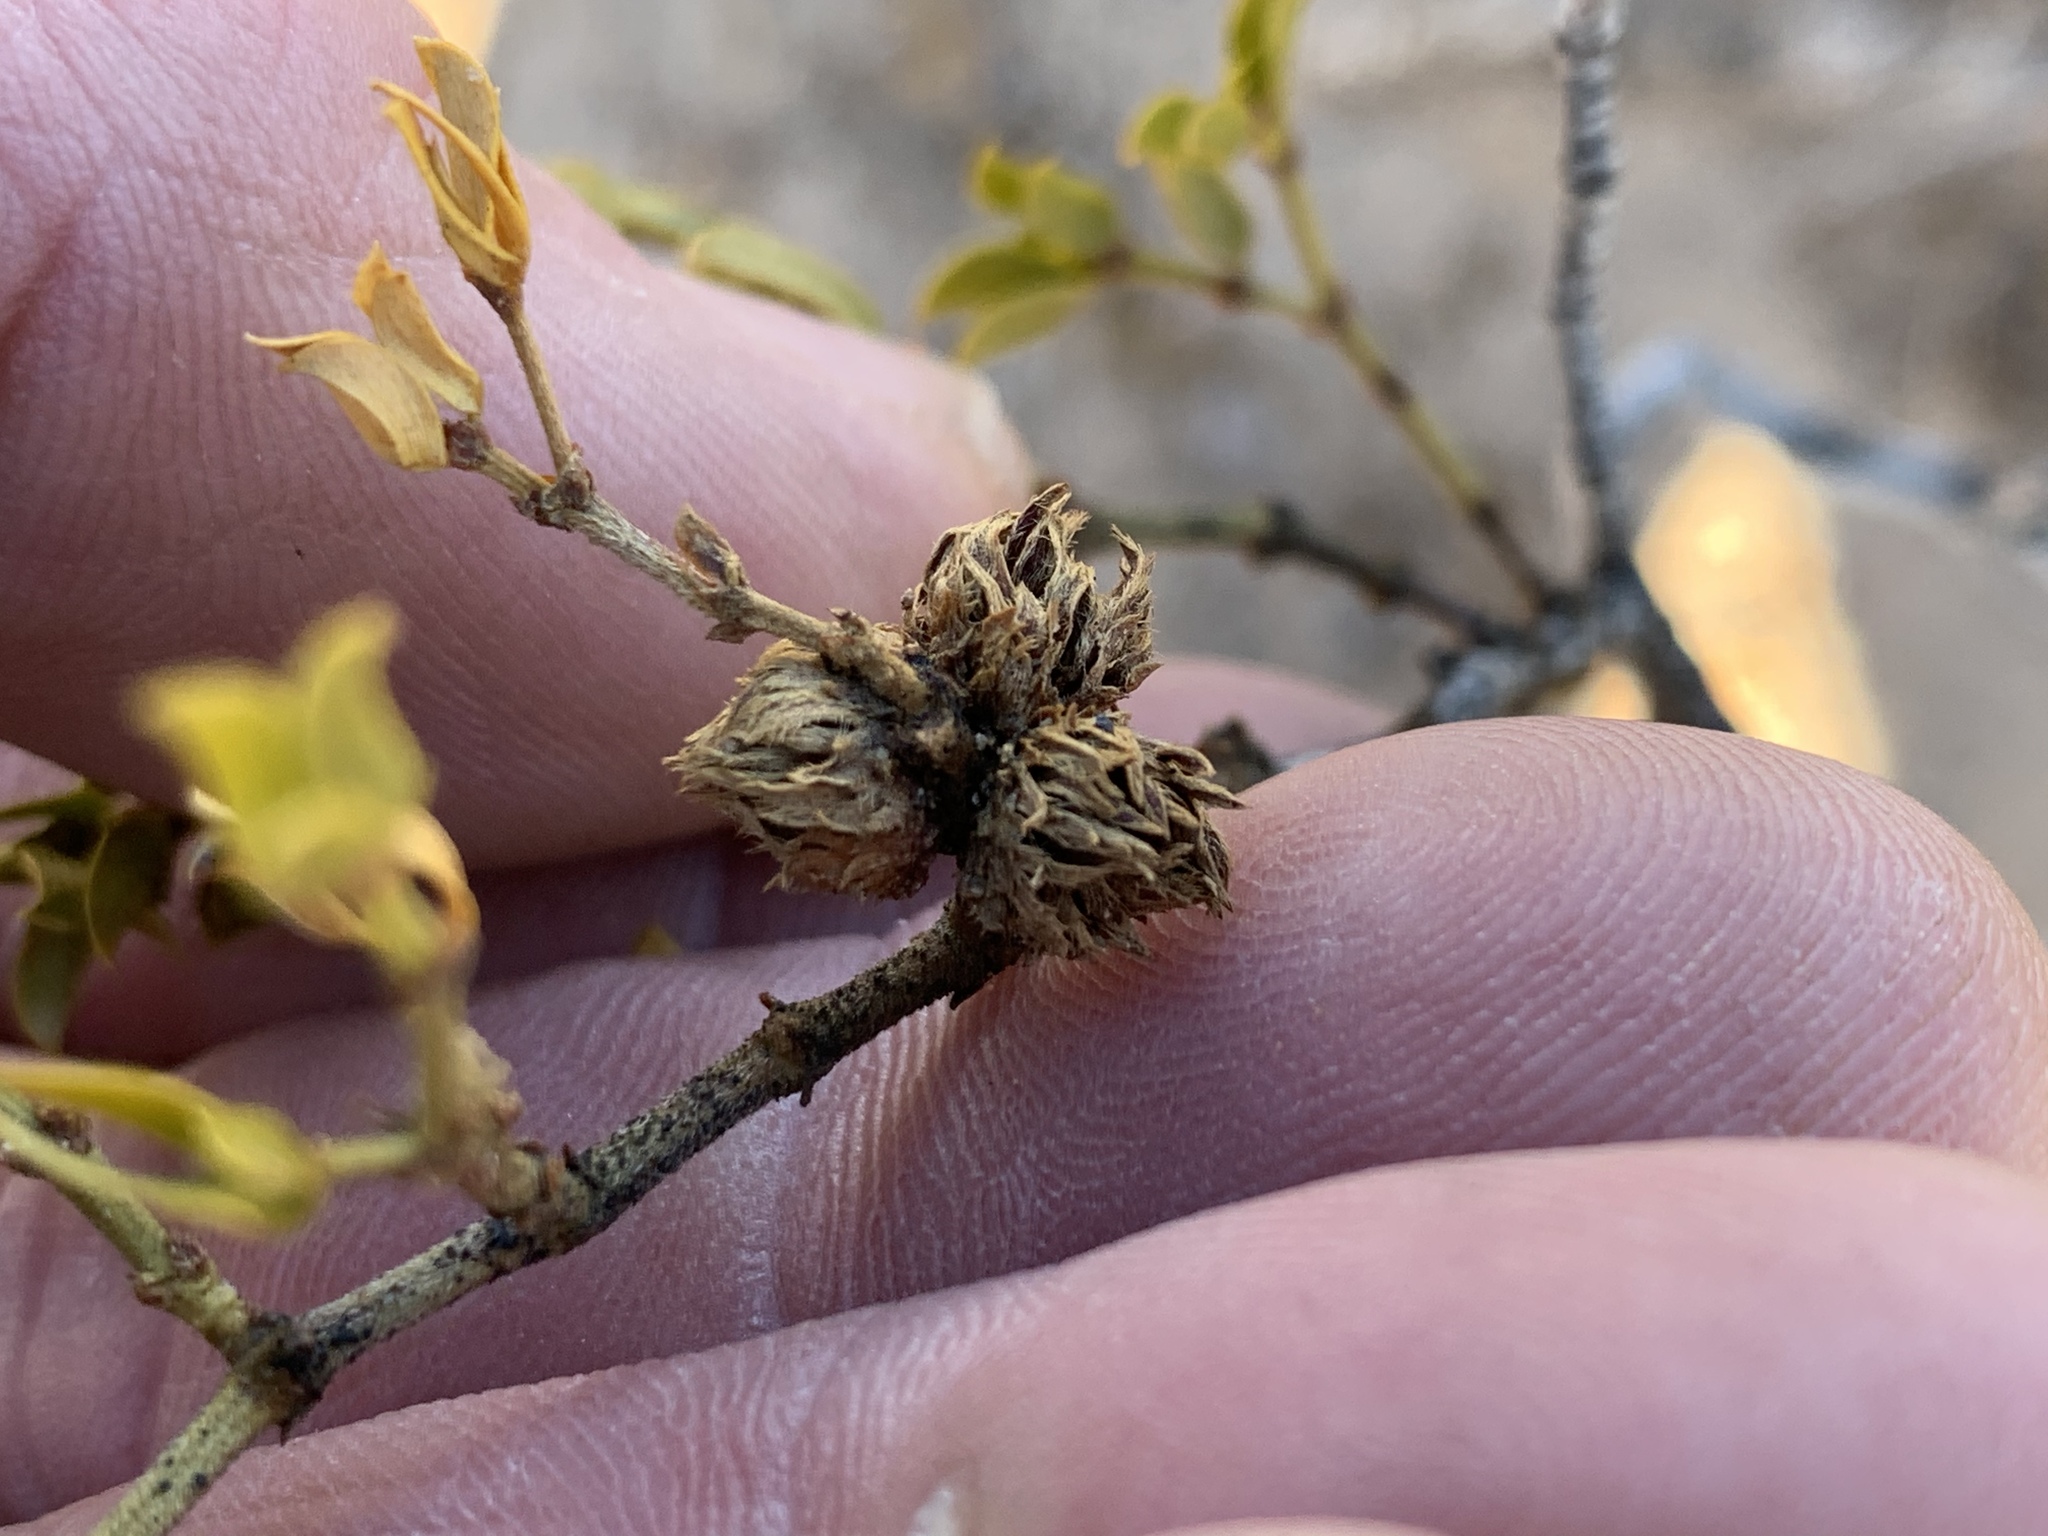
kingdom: Animalia
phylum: Arthropoda
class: Insecta
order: Diptera
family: Cecidomyiidae
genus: Asphondylia
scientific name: Asphondylia rosetta
